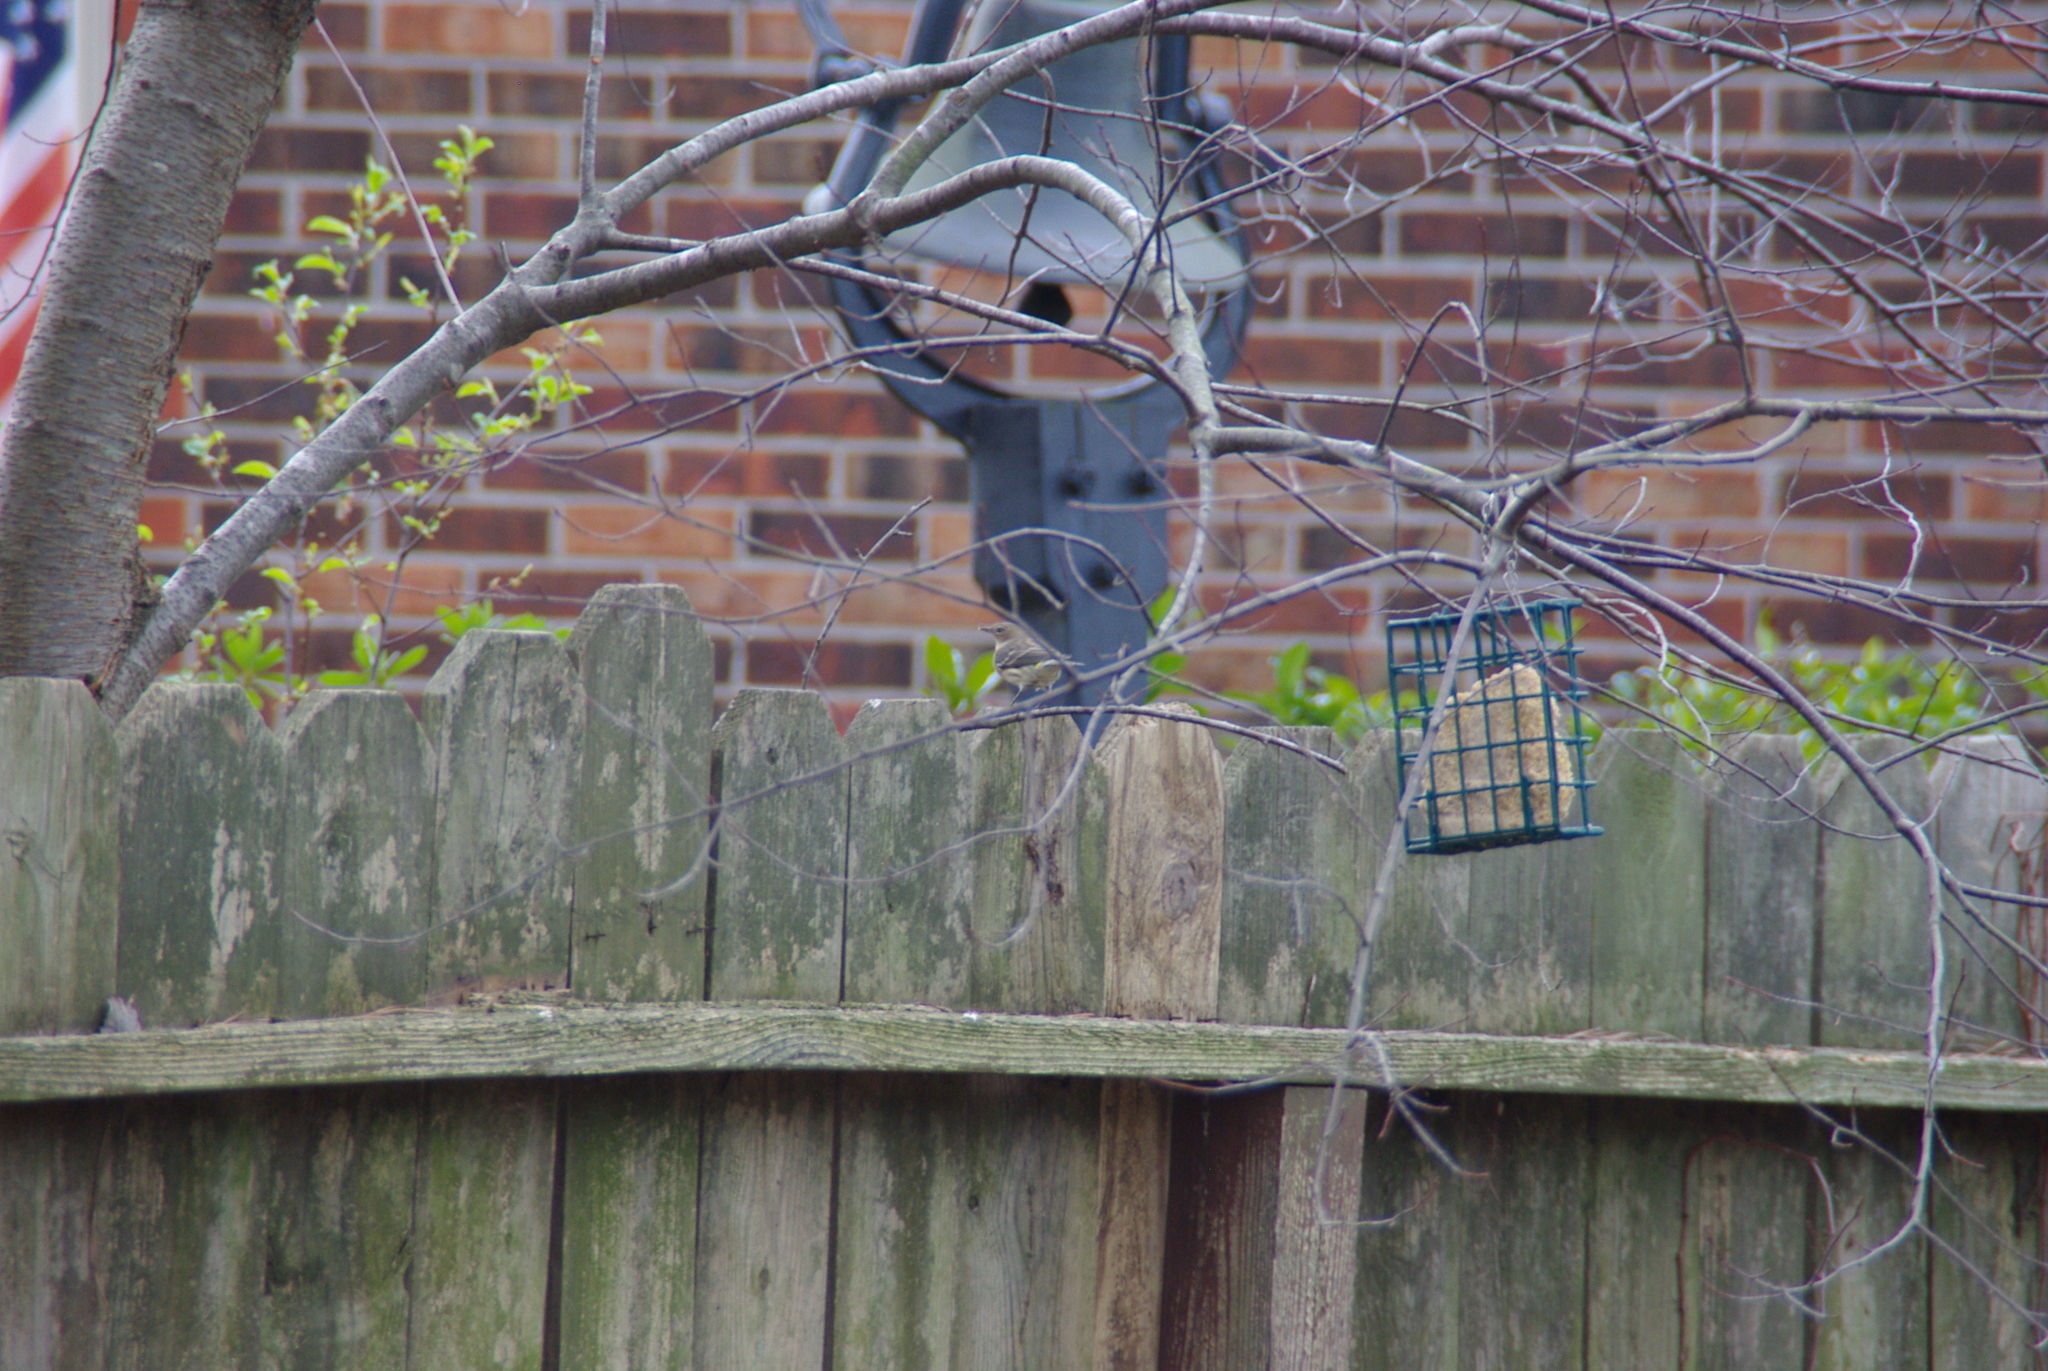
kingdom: Animalia
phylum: Chordata
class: Aves
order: Passeriformes
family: Parulidae
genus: Setophaga
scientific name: Setophaga coronata
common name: Myrtle warbler
